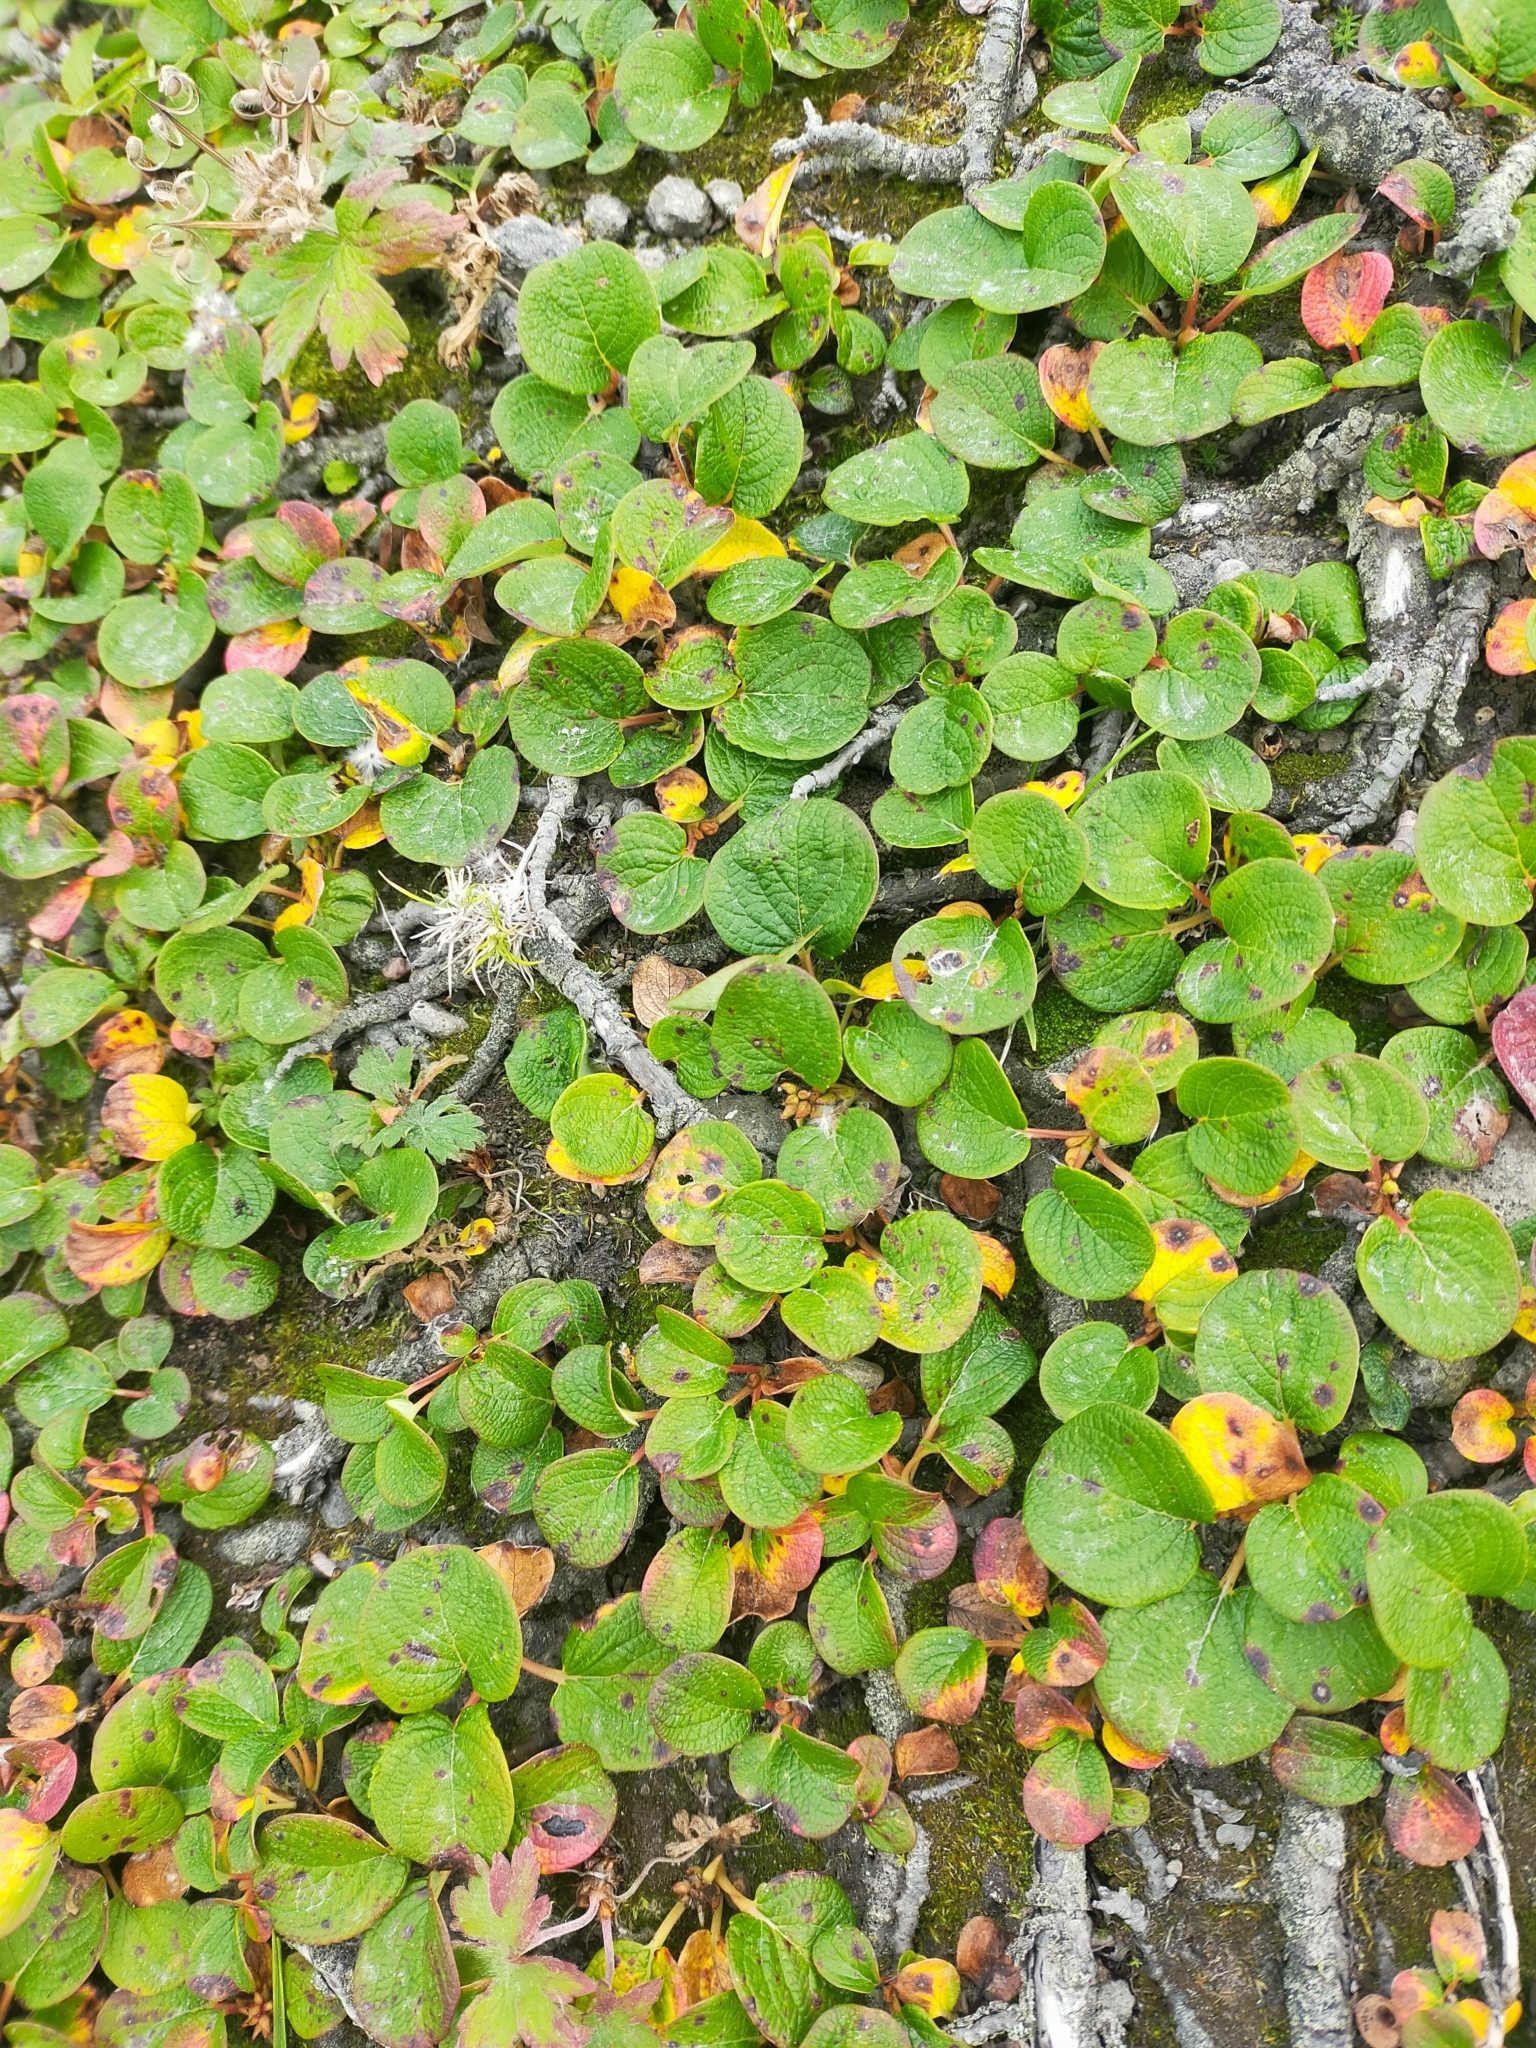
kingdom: Plantae
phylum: Tracheophyta
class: Magnoliopsida
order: Malpighiales
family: Salicaceae
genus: Salix
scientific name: Salix reticulata
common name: Net-leaved willow
